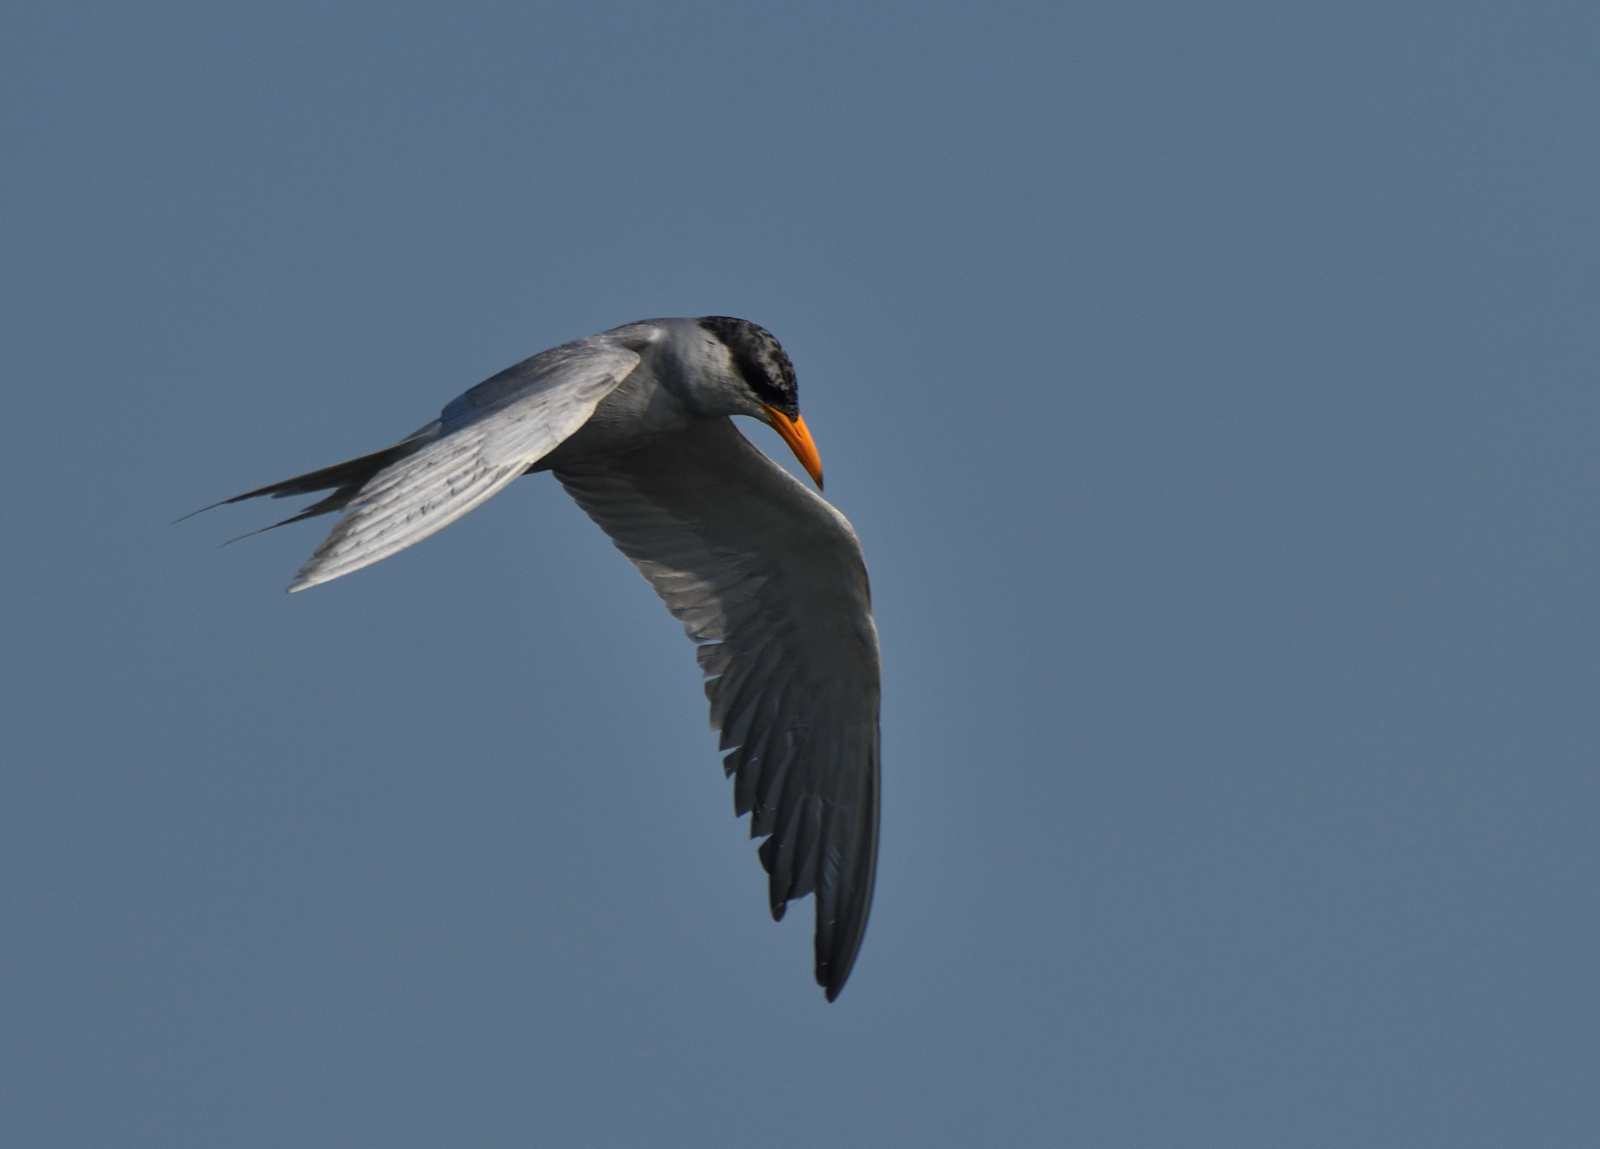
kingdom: Animalia
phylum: Chordata
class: Aves
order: Charadriiformes
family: Laridae
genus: Sterna
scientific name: Sterna aurantia
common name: River tern
